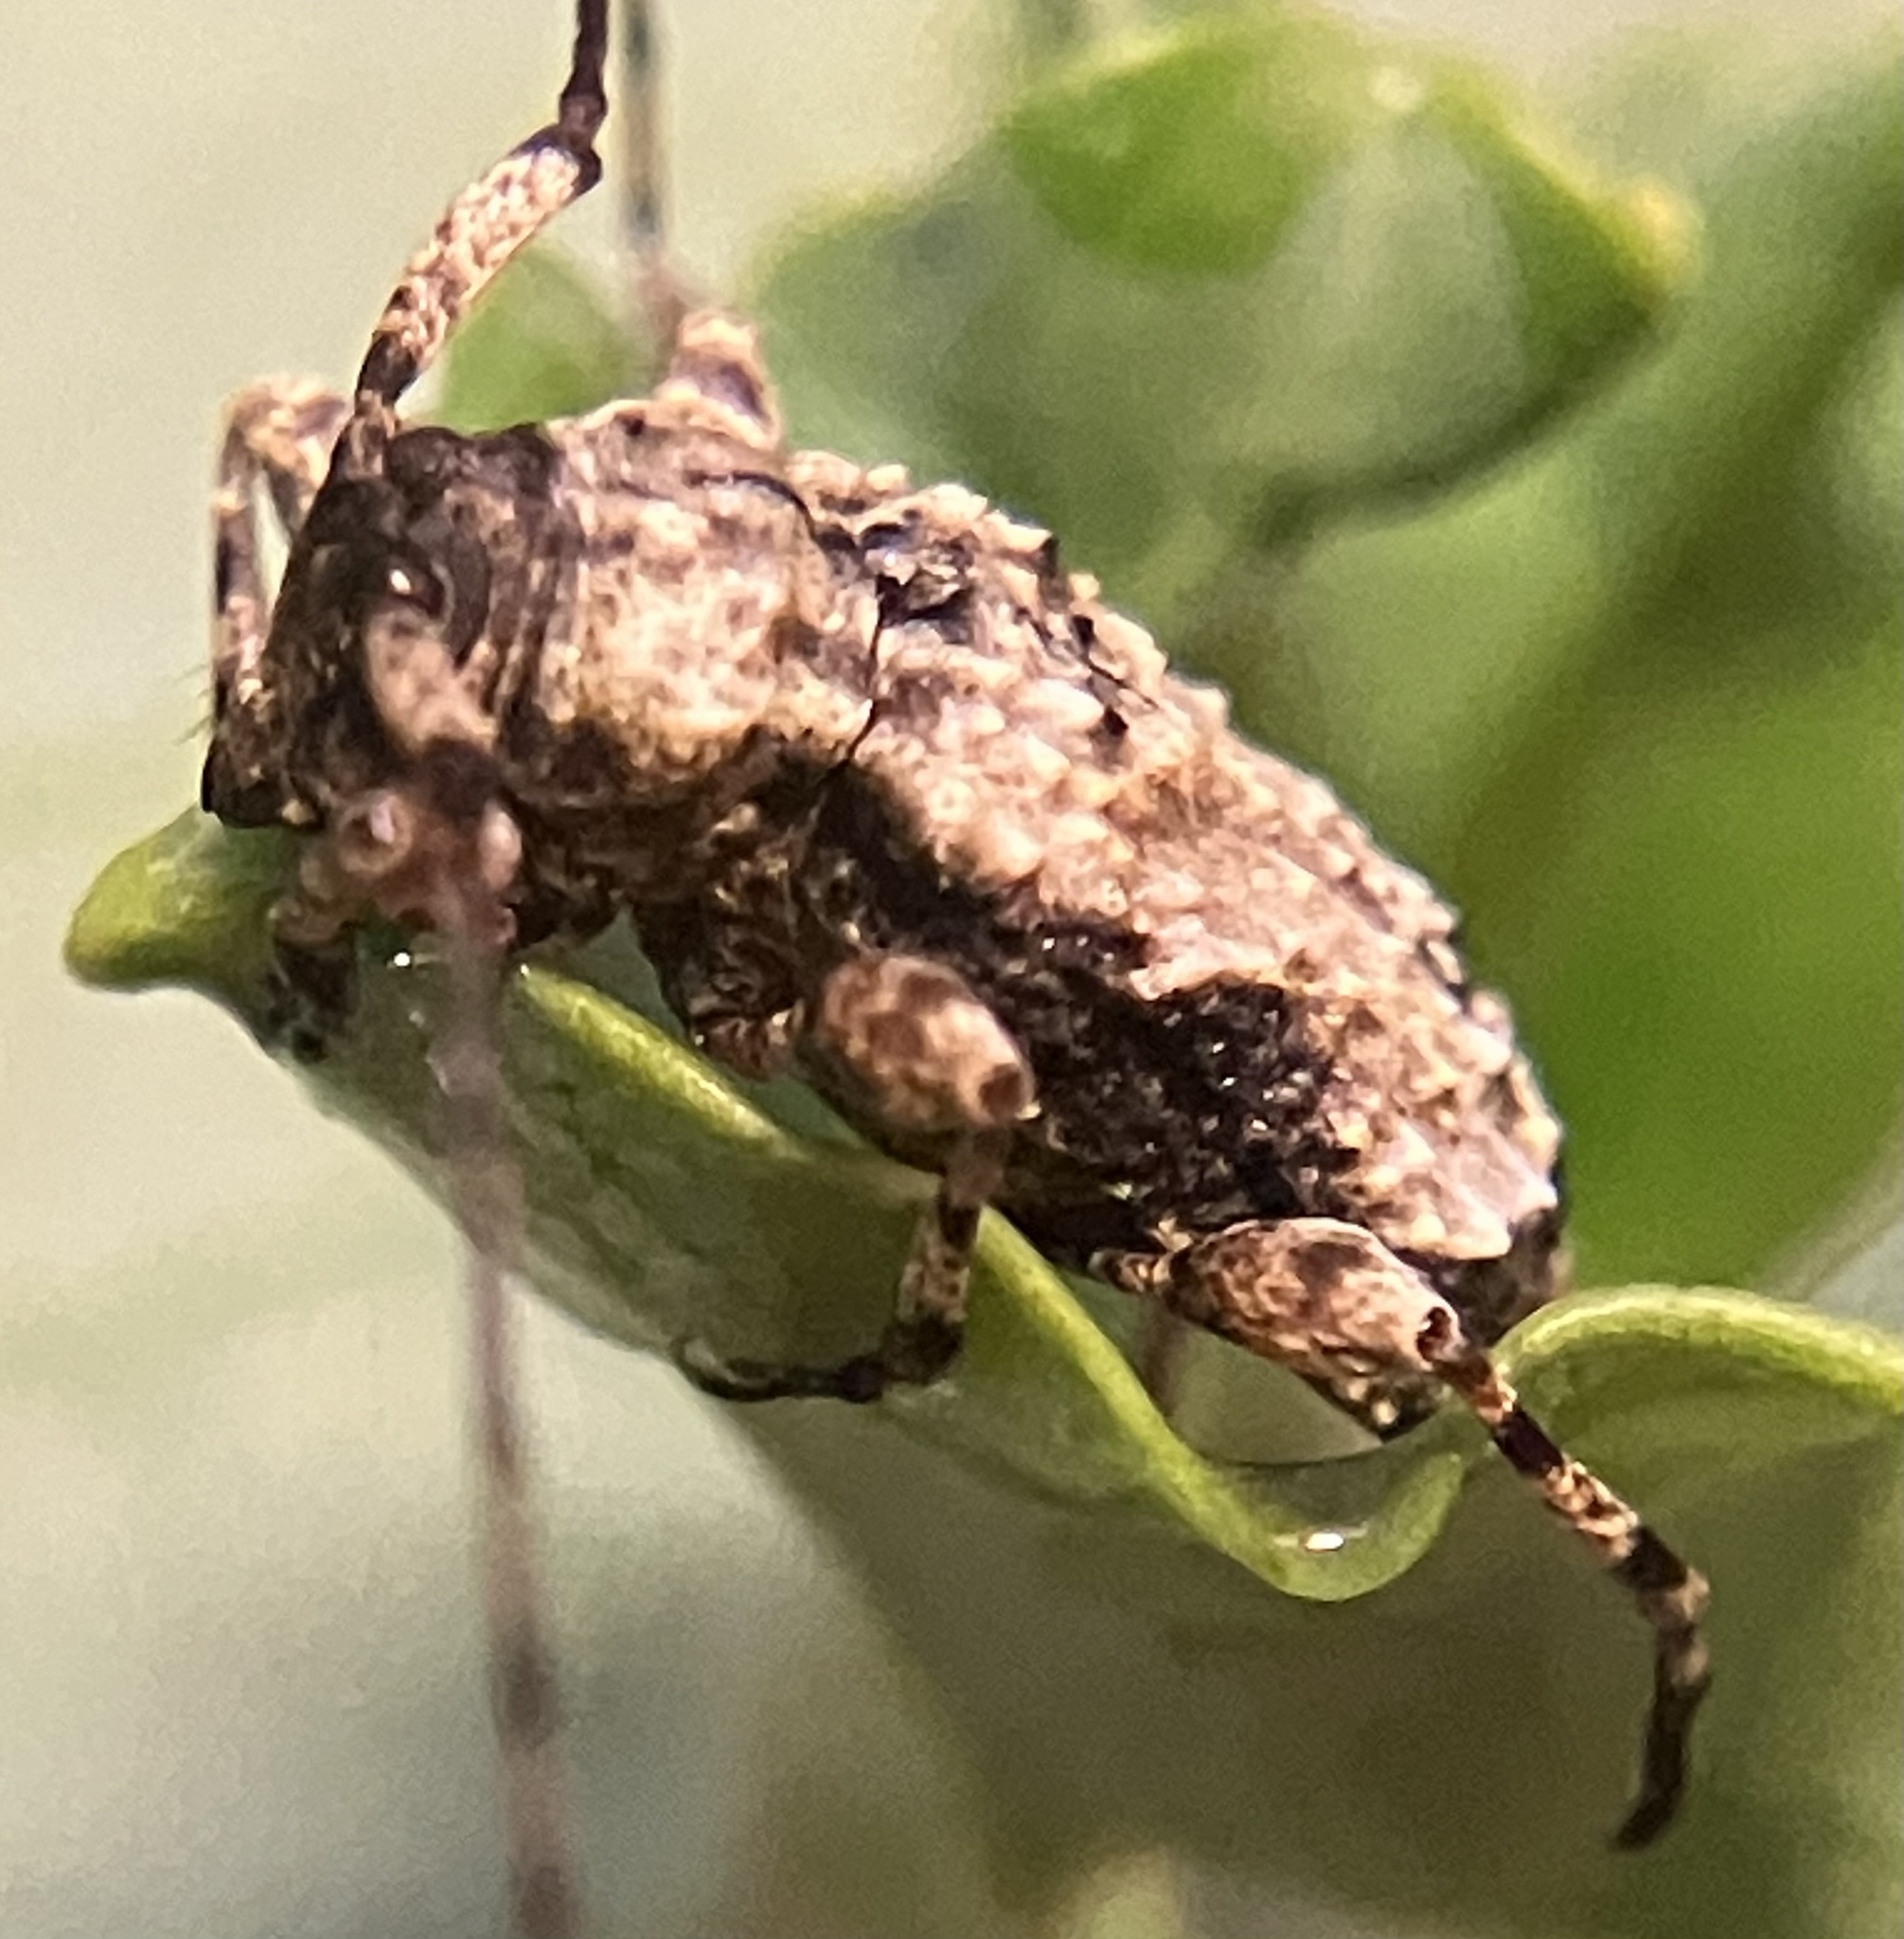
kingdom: Animalia
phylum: Arthropoda
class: Insecta
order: Coleoptera
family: Cerambycidae
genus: Leptostylus
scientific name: Leptostylus asperatus
